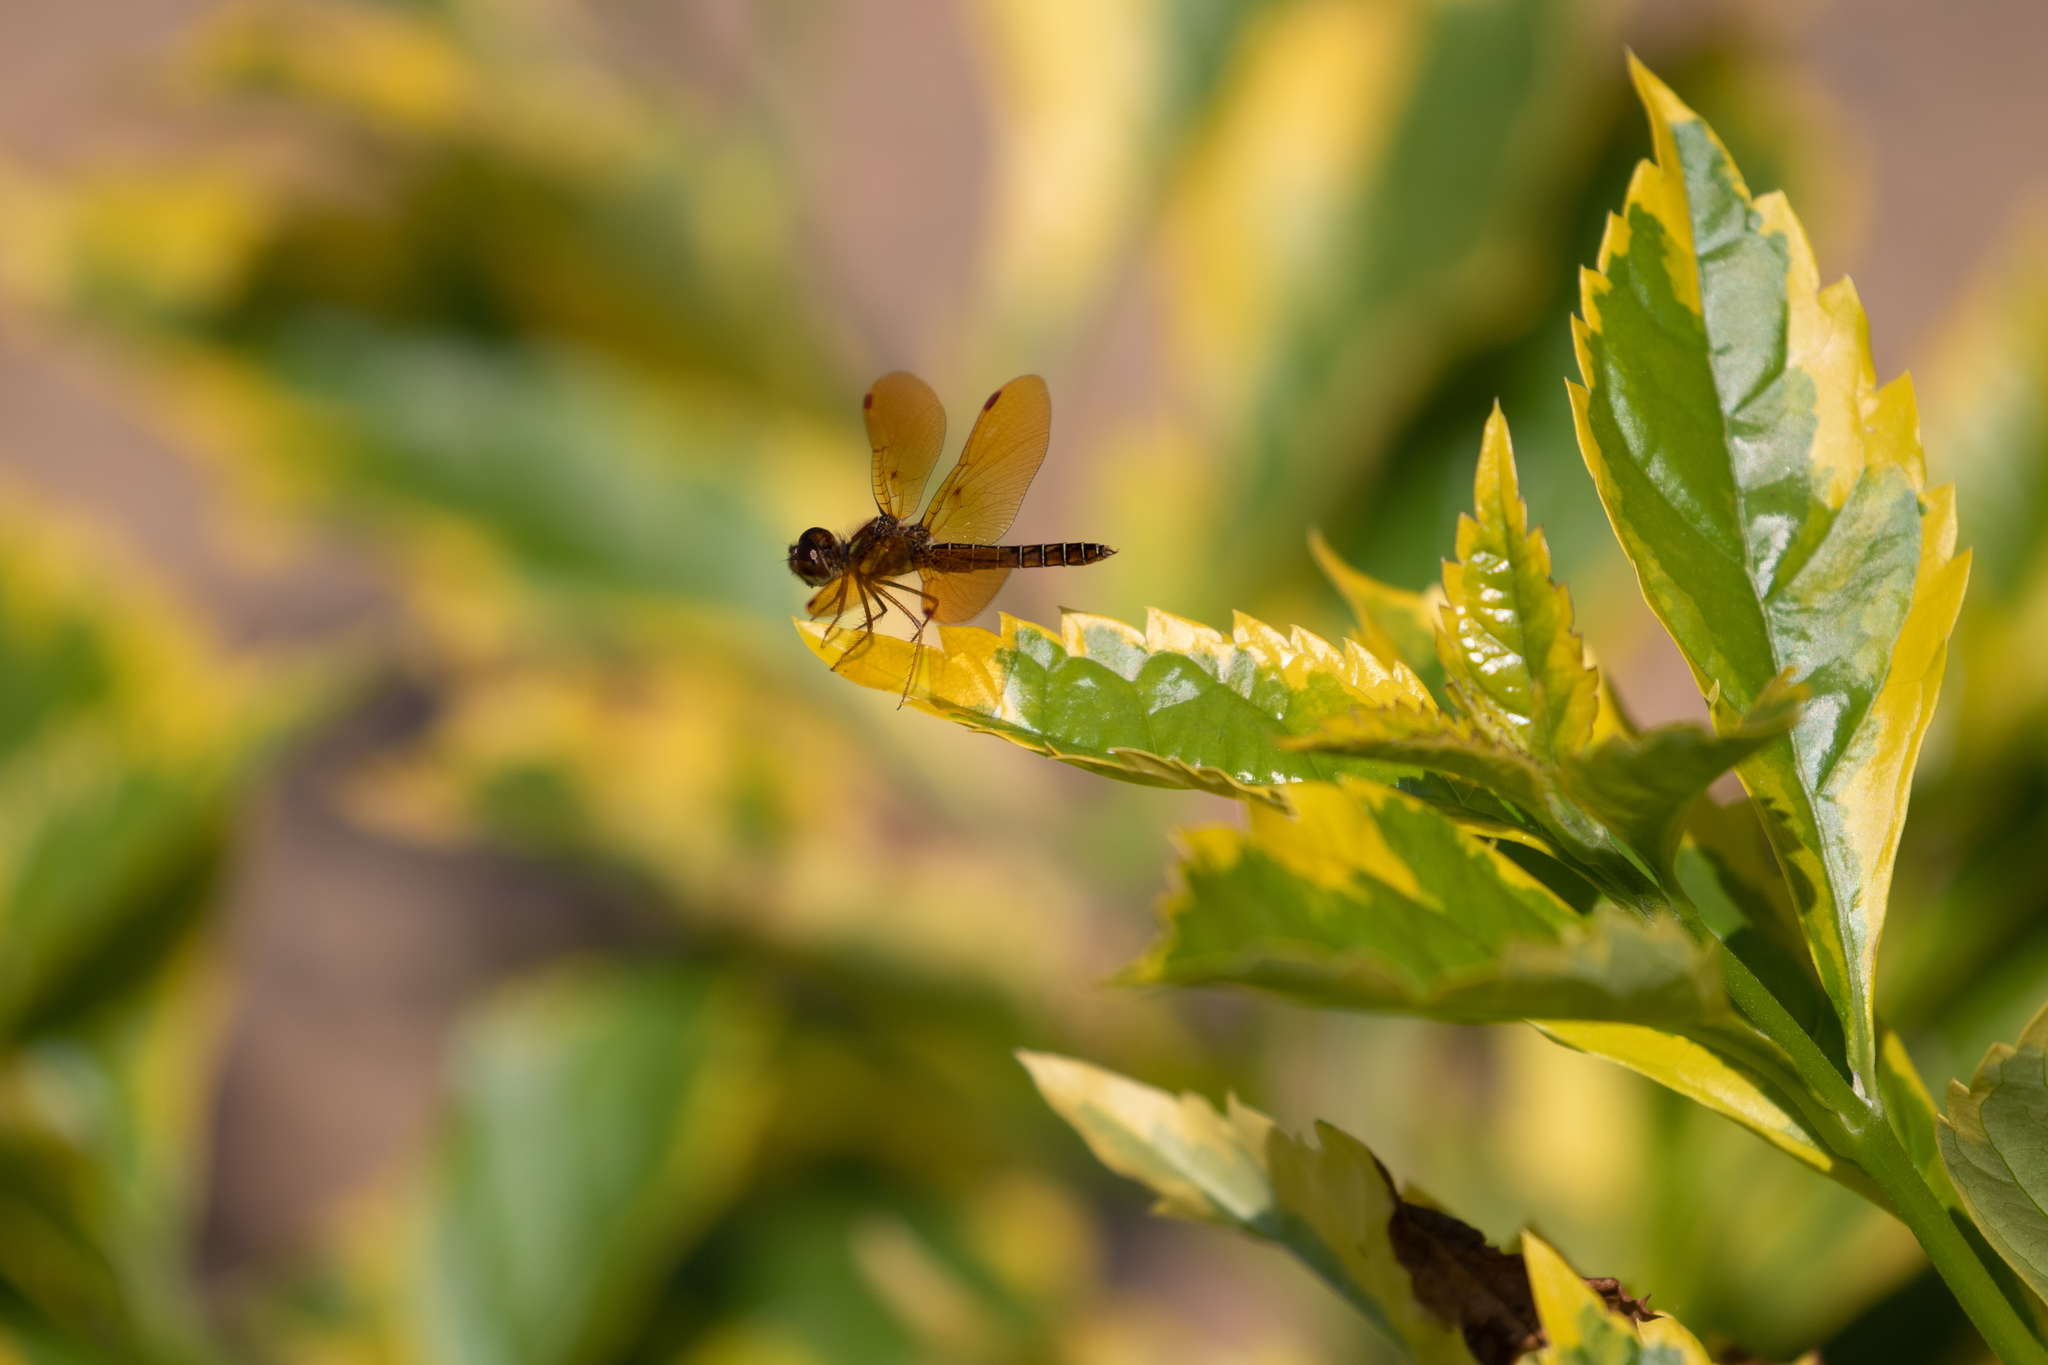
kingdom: Animalia
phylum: Arthropoda
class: Insecta
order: Odonata
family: Libellulidae
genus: Perithemis
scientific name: Perithemis tenera
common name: Eastern amberwing
